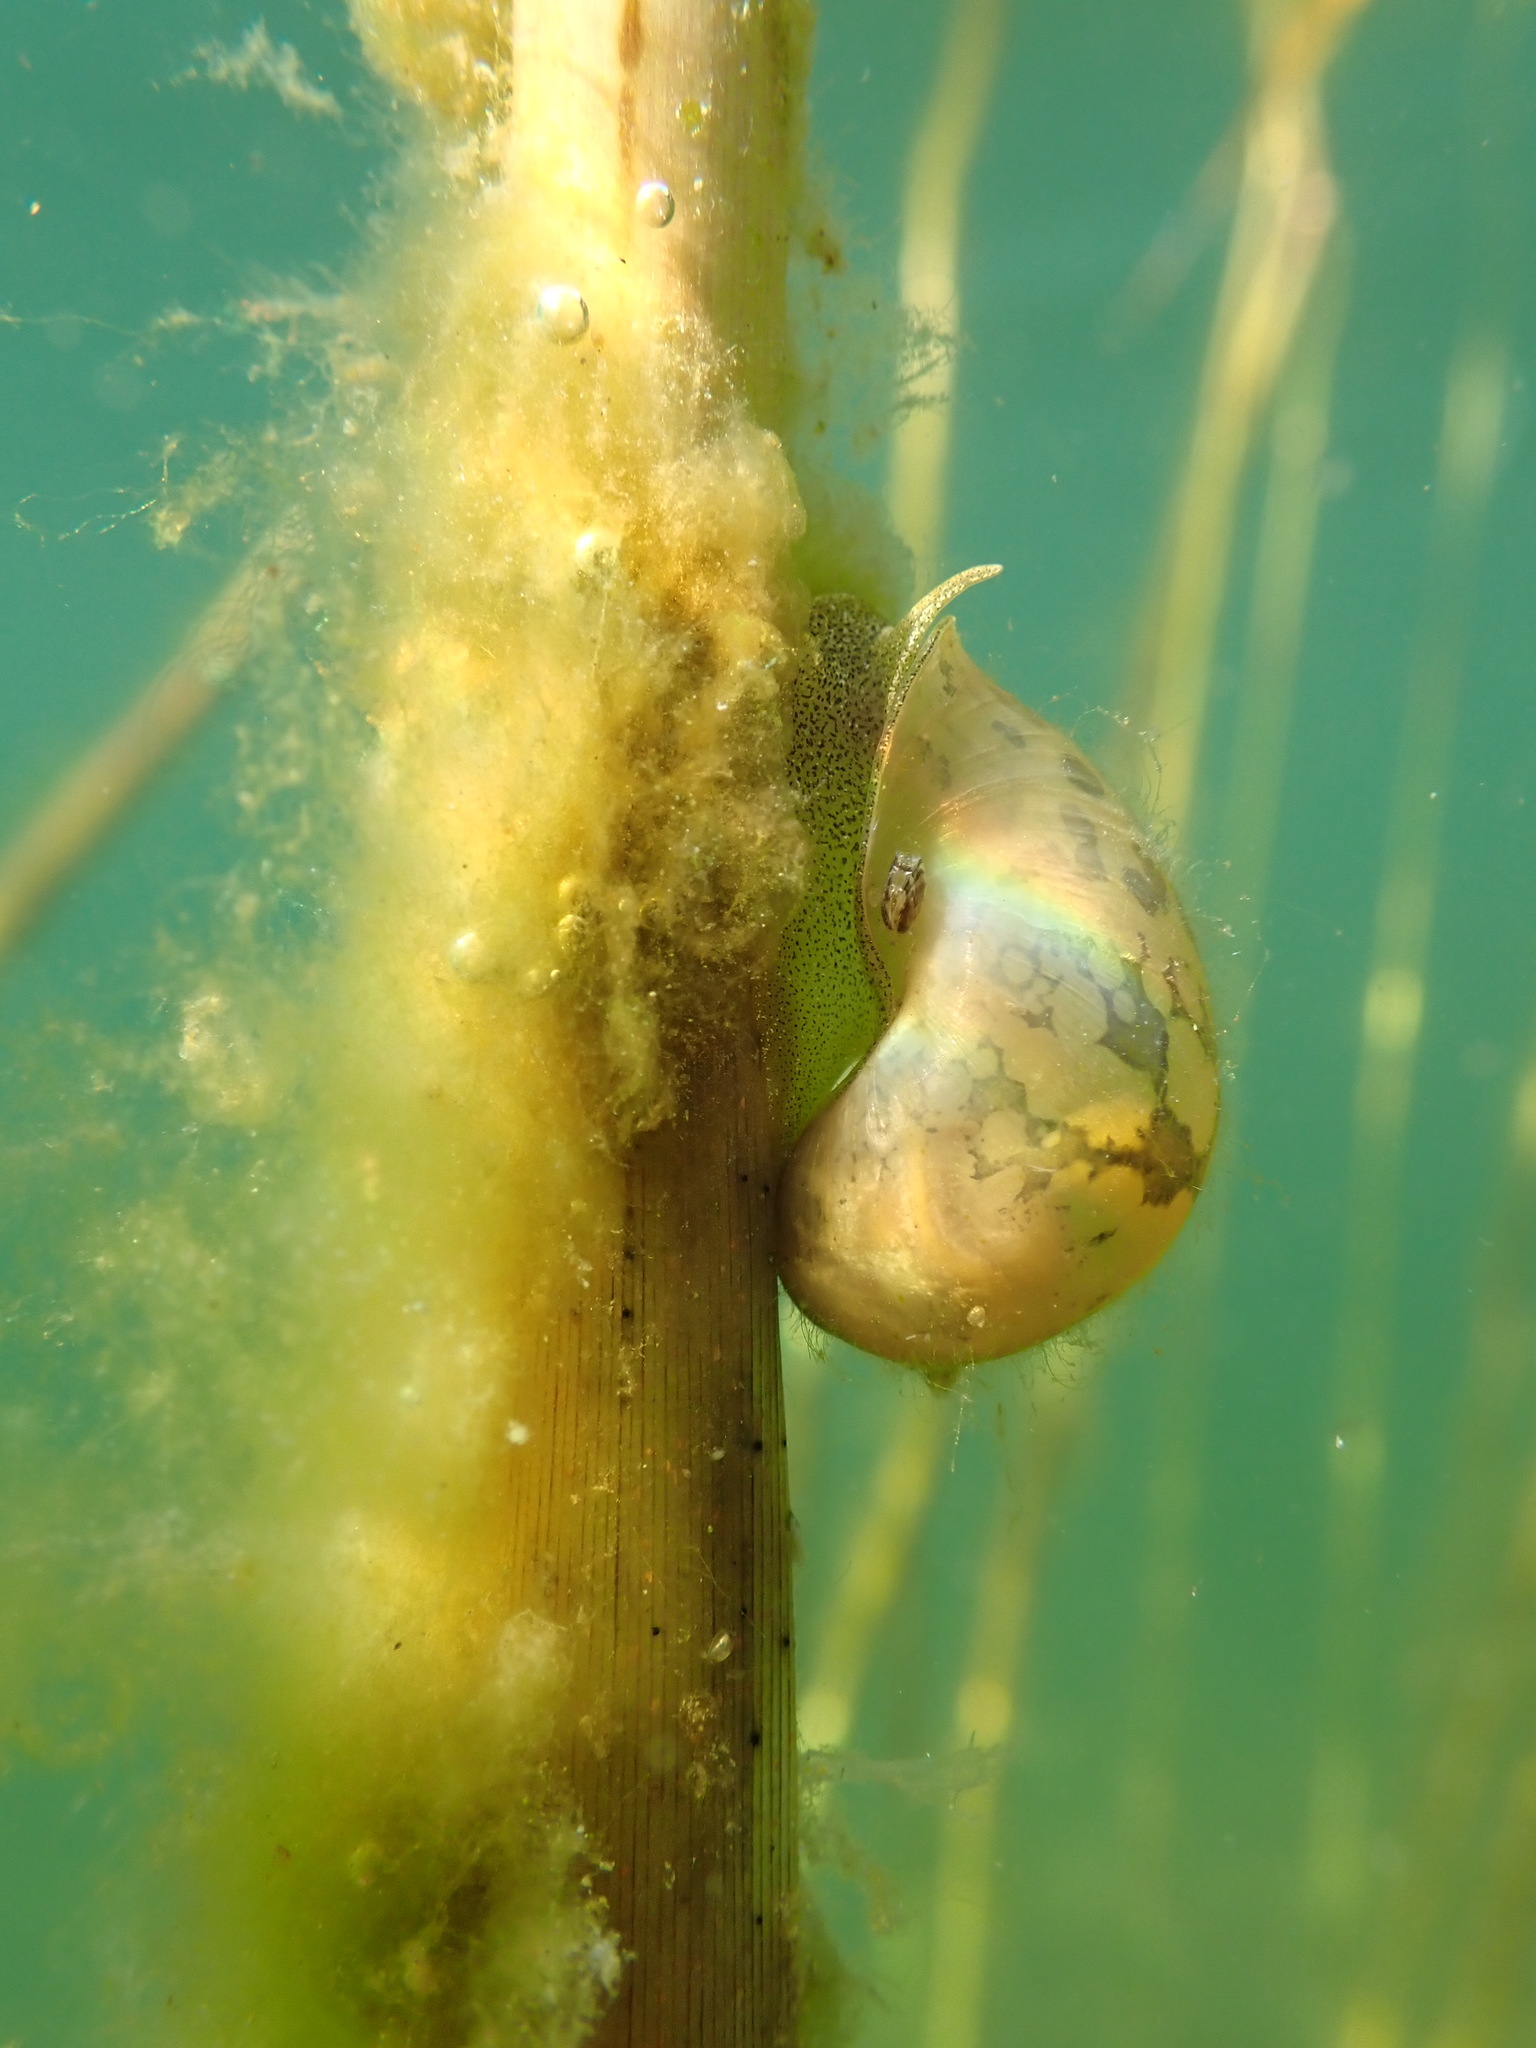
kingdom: Animalia
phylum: Mollusca
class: Gastropoda
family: Lymnaeidae
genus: Radix
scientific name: Radix auricularia
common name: Ear pond snail
